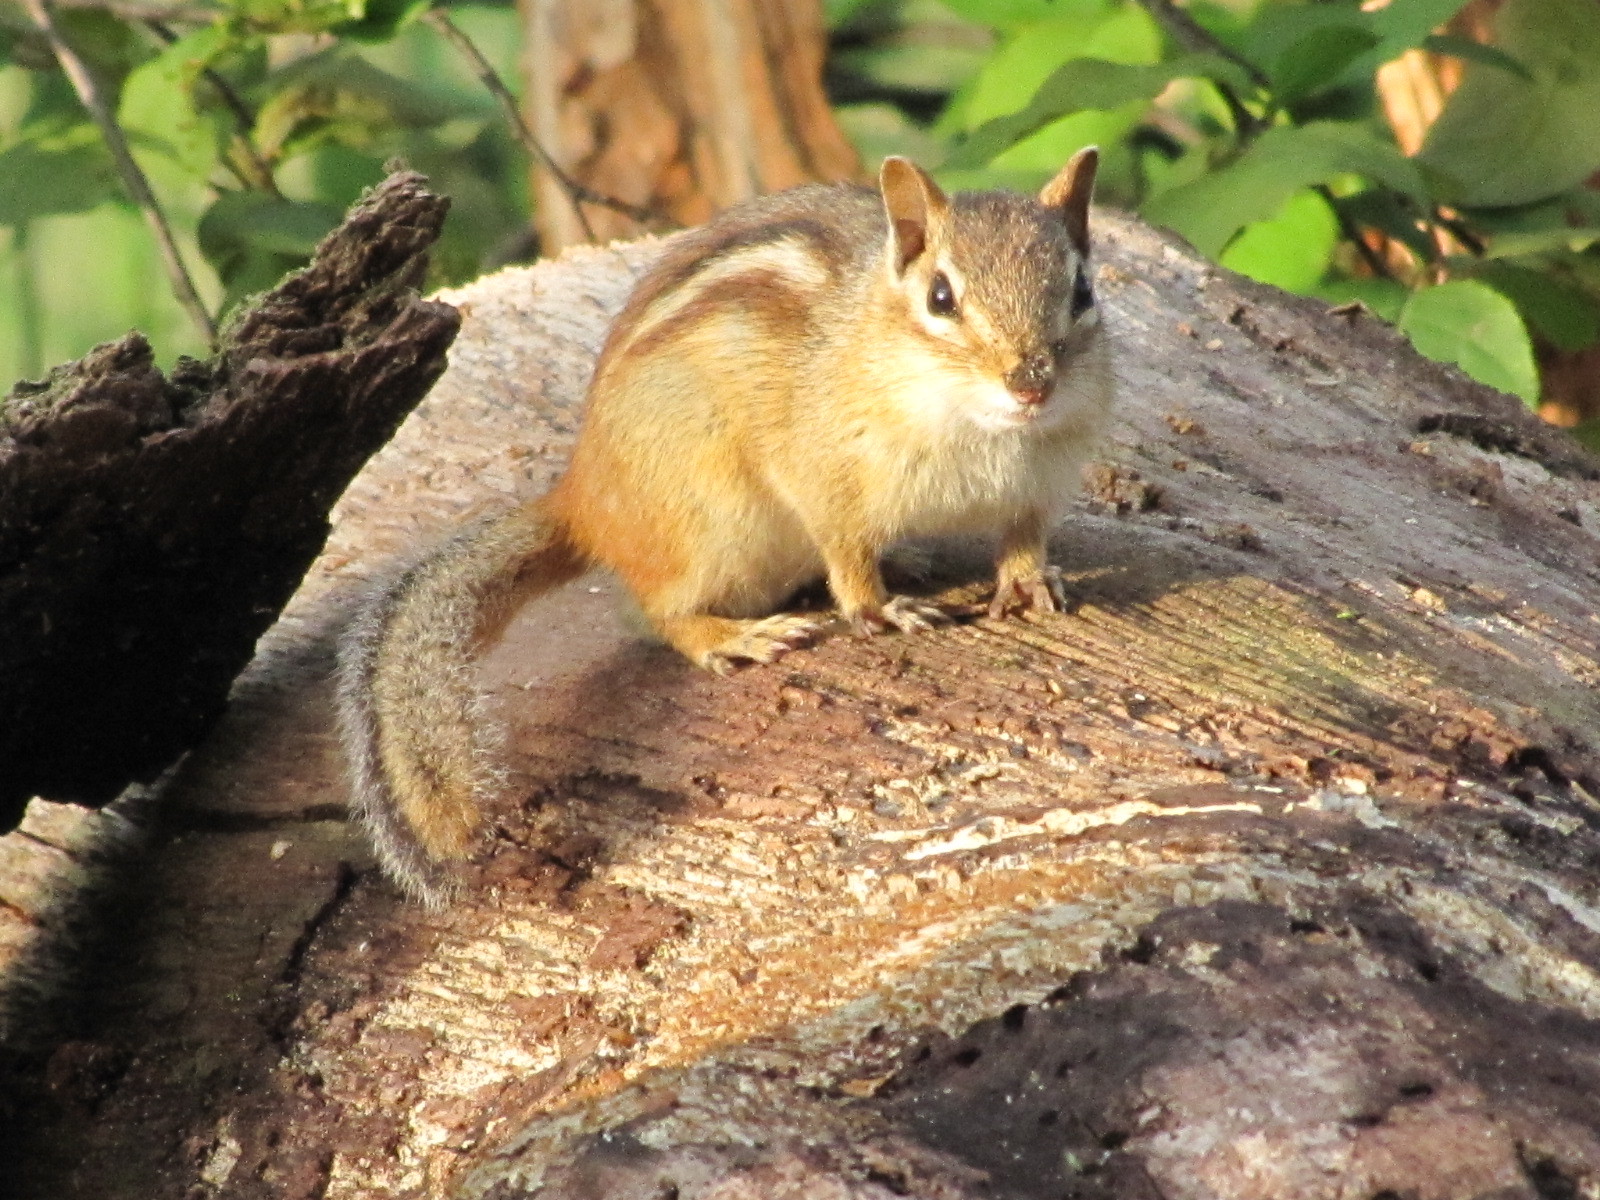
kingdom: Animalia
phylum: Chordata
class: Mammalia
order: Rodentia
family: Sciuridae
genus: Tamias
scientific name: Tamias striatus
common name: Eastern chipmunk
